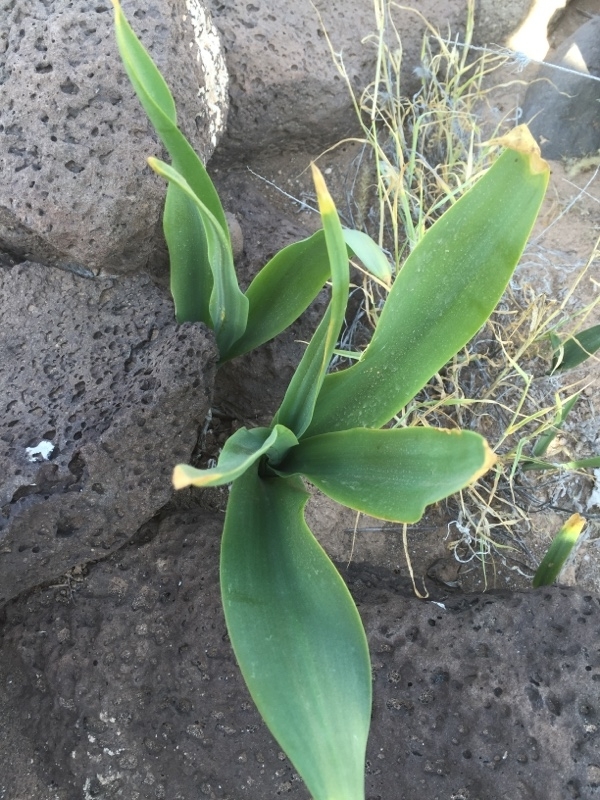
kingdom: Plantae
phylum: Tracheophyta
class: Liliopsida
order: Asparagales
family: Asparagaceae
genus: Drimia
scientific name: Drimia maritima
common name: Maritime squill
